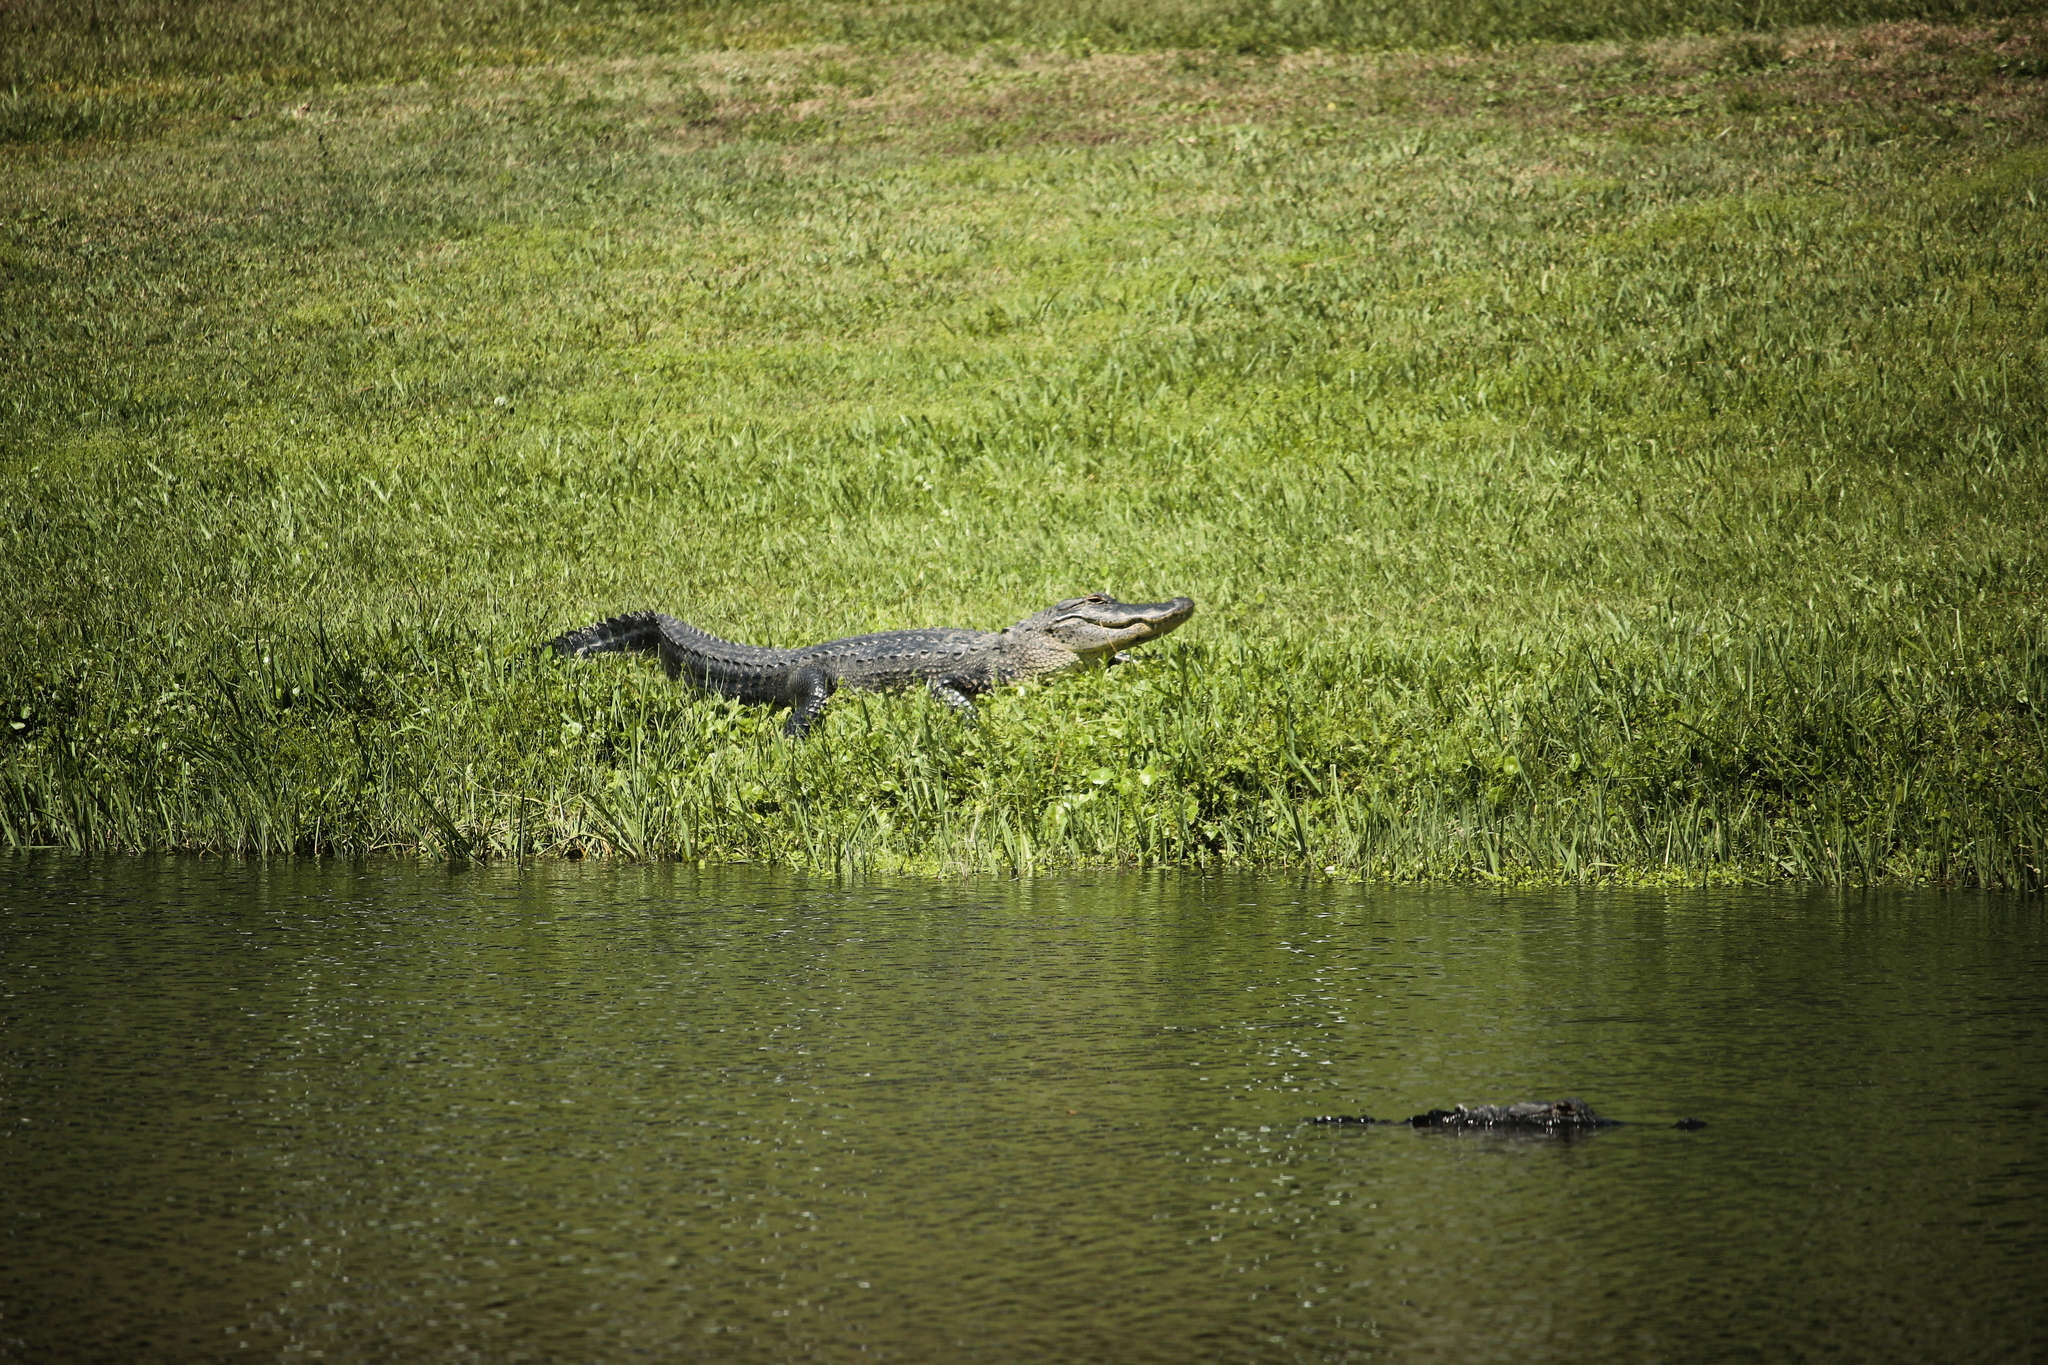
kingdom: Animalia
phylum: Chordata
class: Crocodylia
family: Alligatoridae
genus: Alligator
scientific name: Alligator mississippiensis
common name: American alligator
